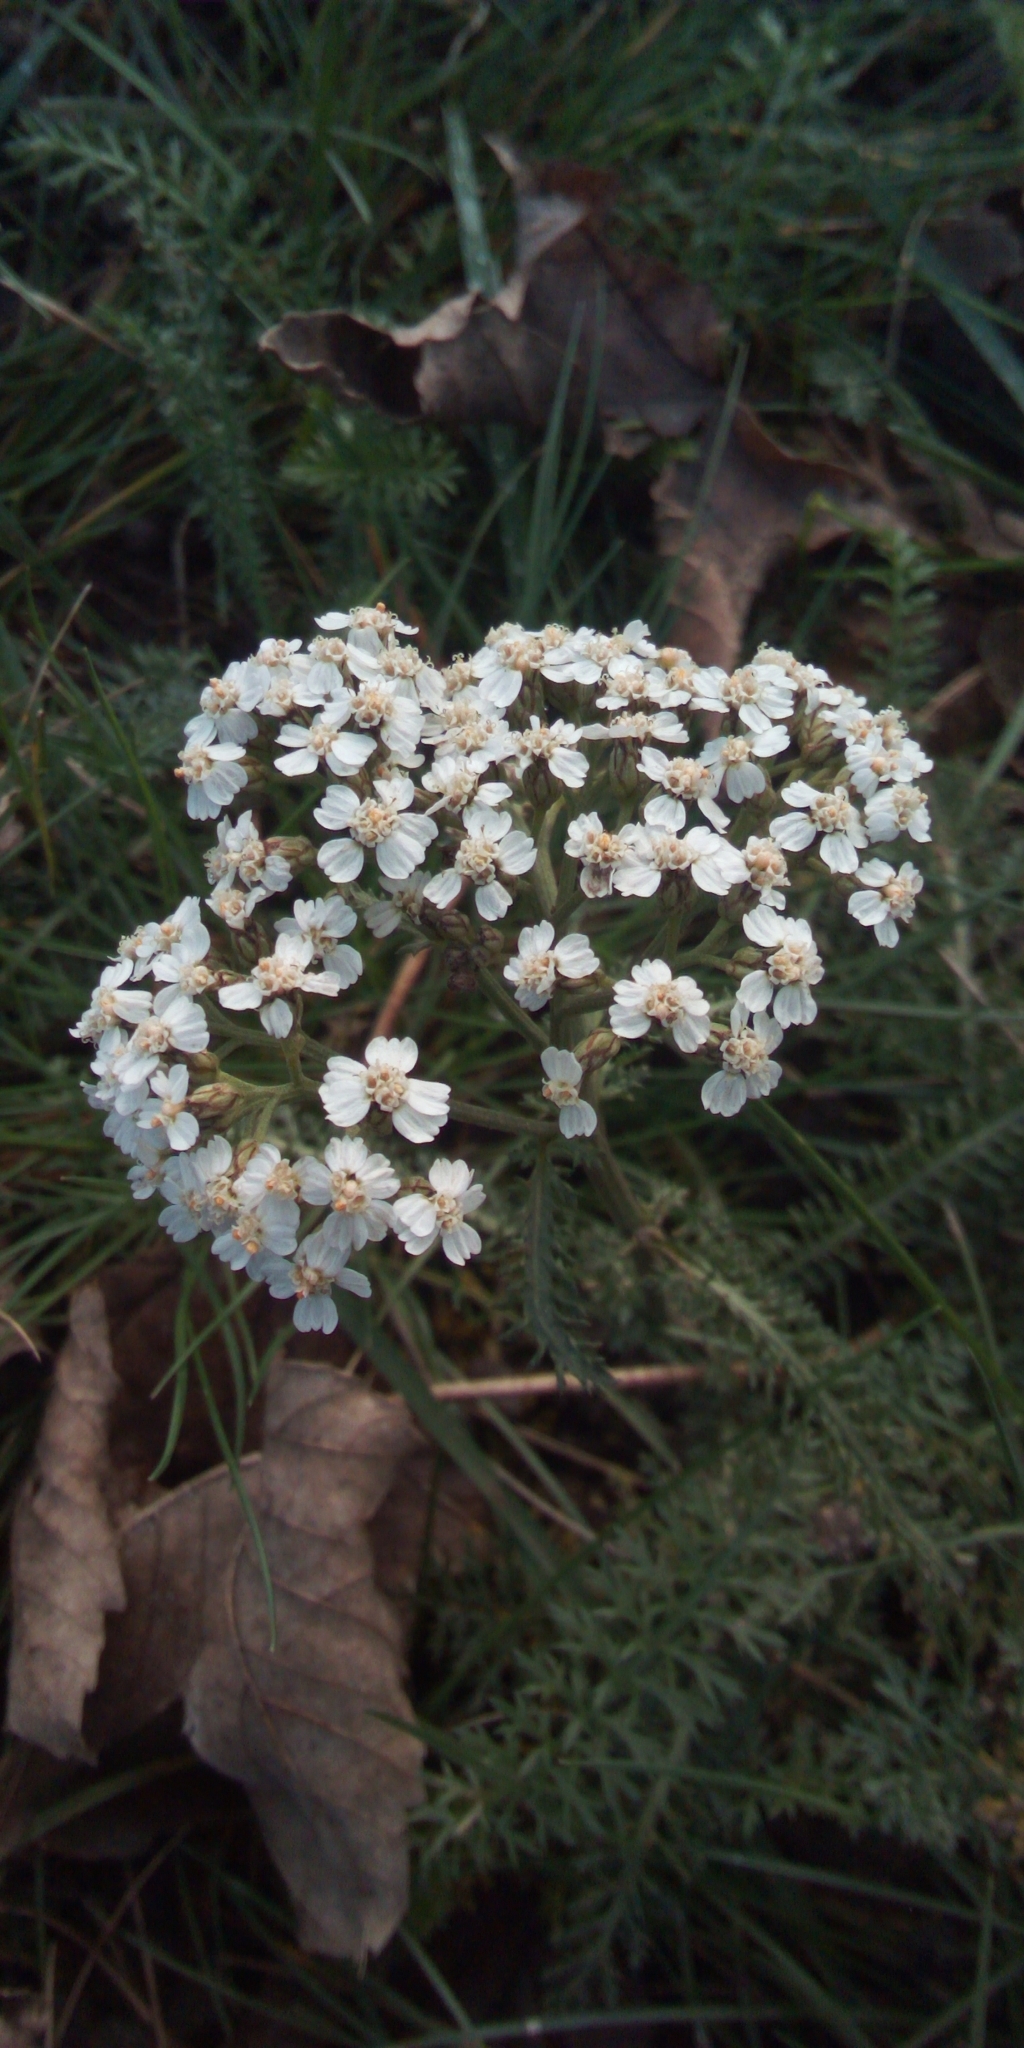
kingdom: Plantae
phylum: Tracheophyta
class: Magnoliopsida
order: Asterales
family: Asteraceae
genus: Achillea
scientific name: Achillea millefolium
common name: Yarrow
